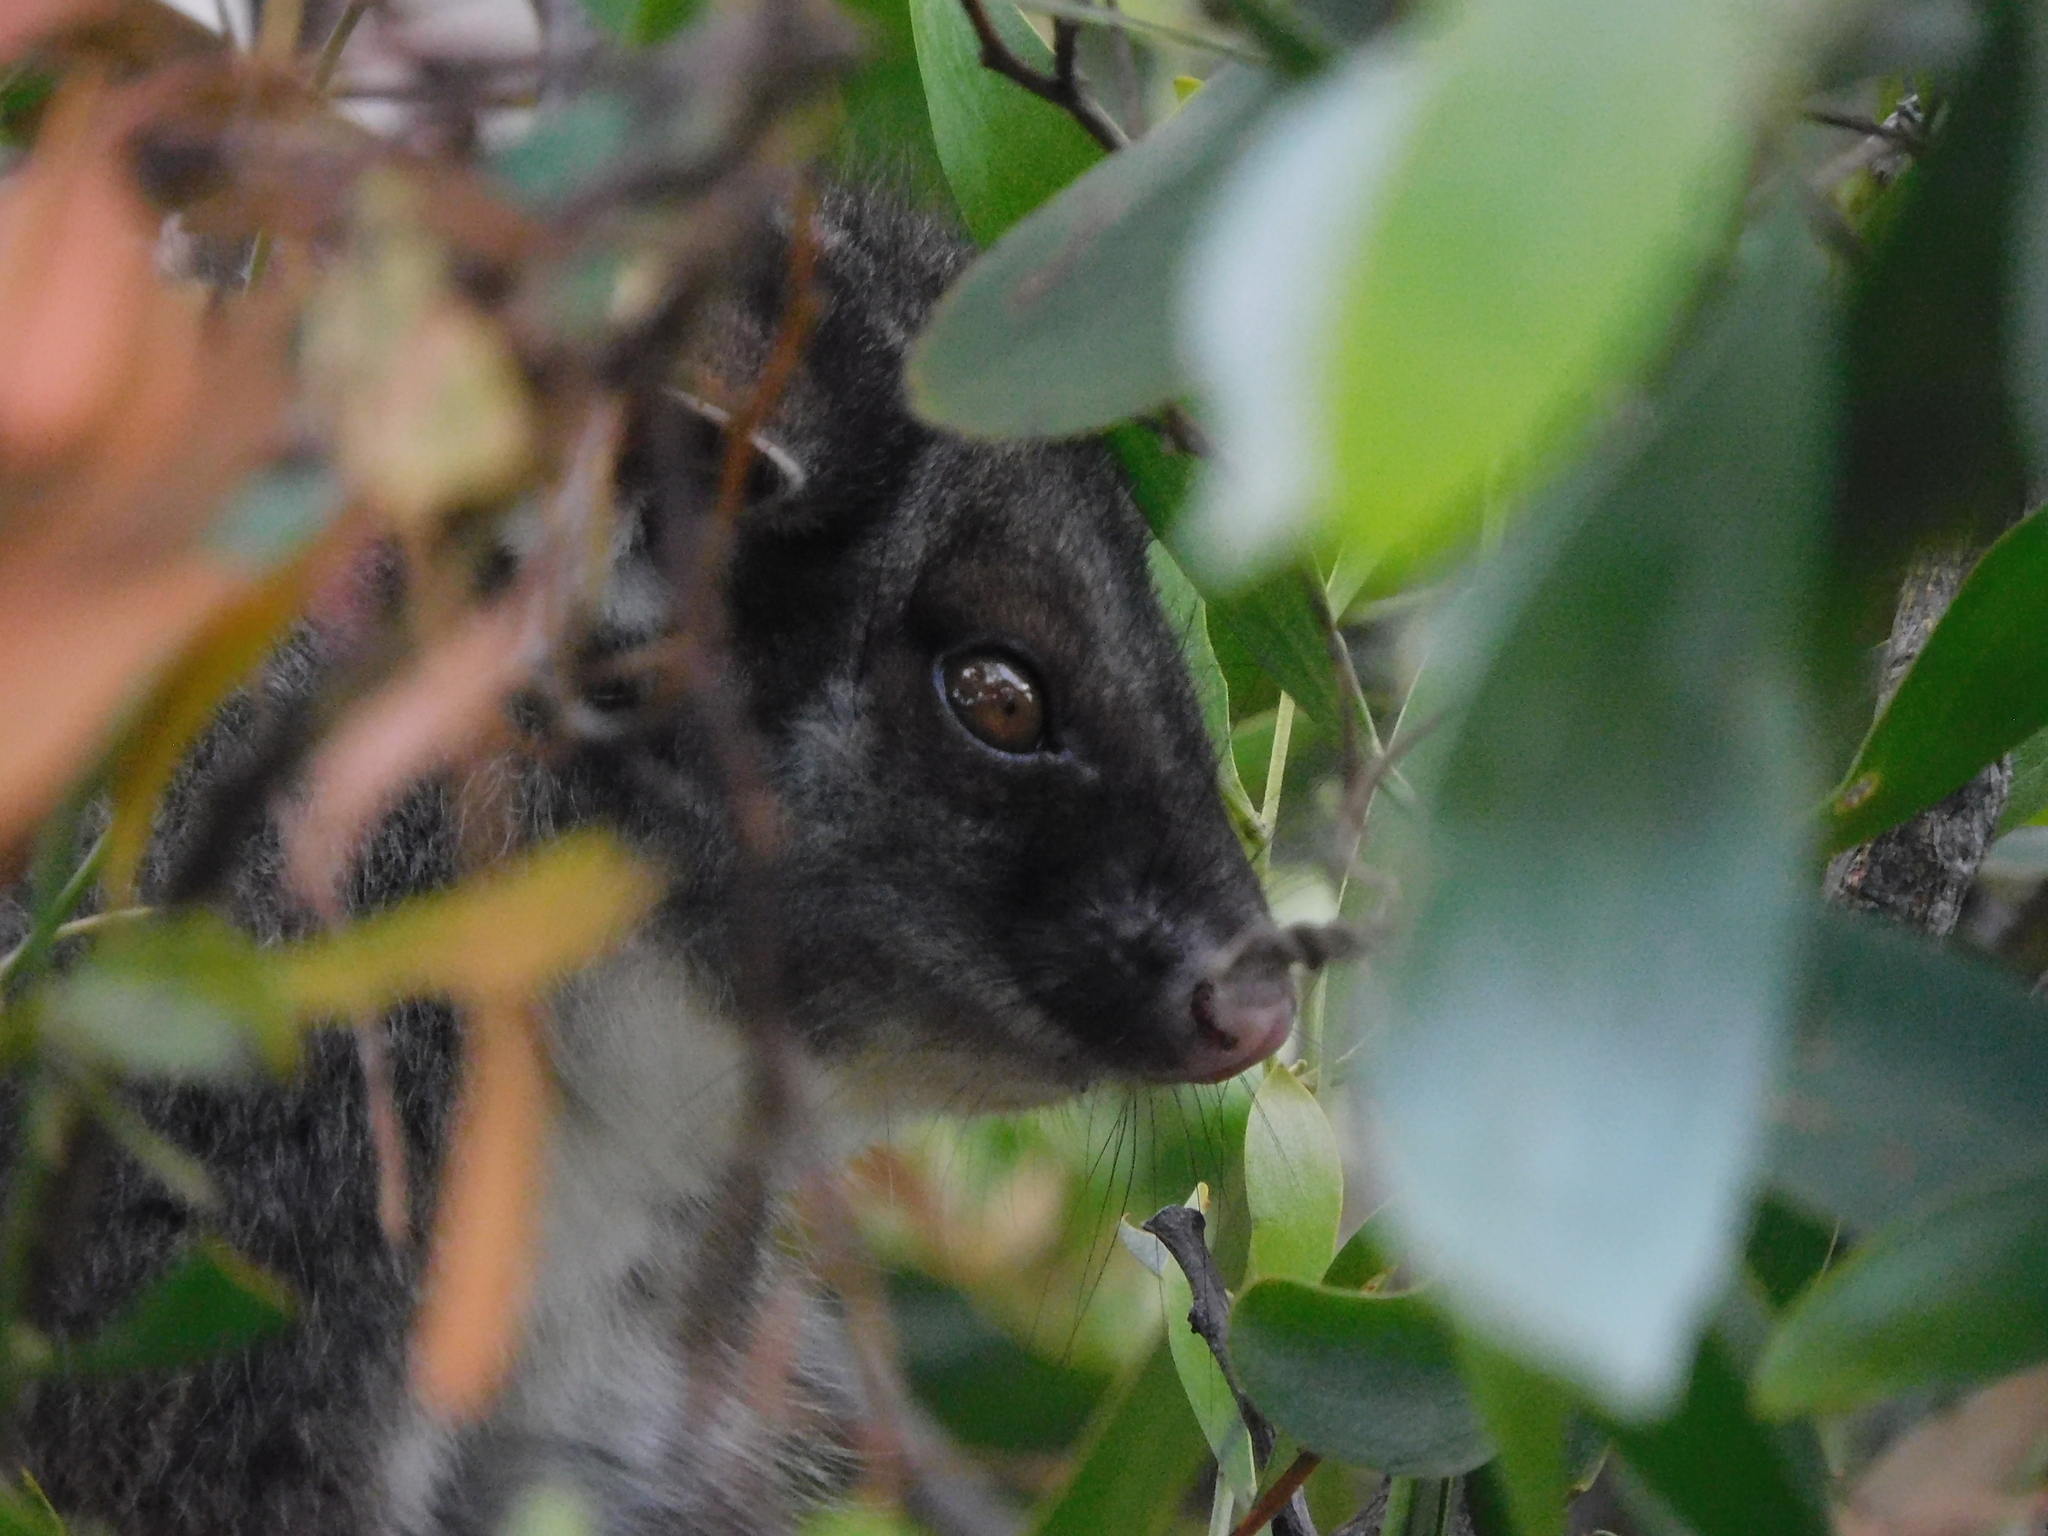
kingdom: Animalia
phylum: Chordata
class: Mammalia
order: Diprotodontia
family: Pseudocheiridae
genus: Pseudocheirus
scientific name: Pseudocheirus peregrinus
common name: Common ringtail possum
